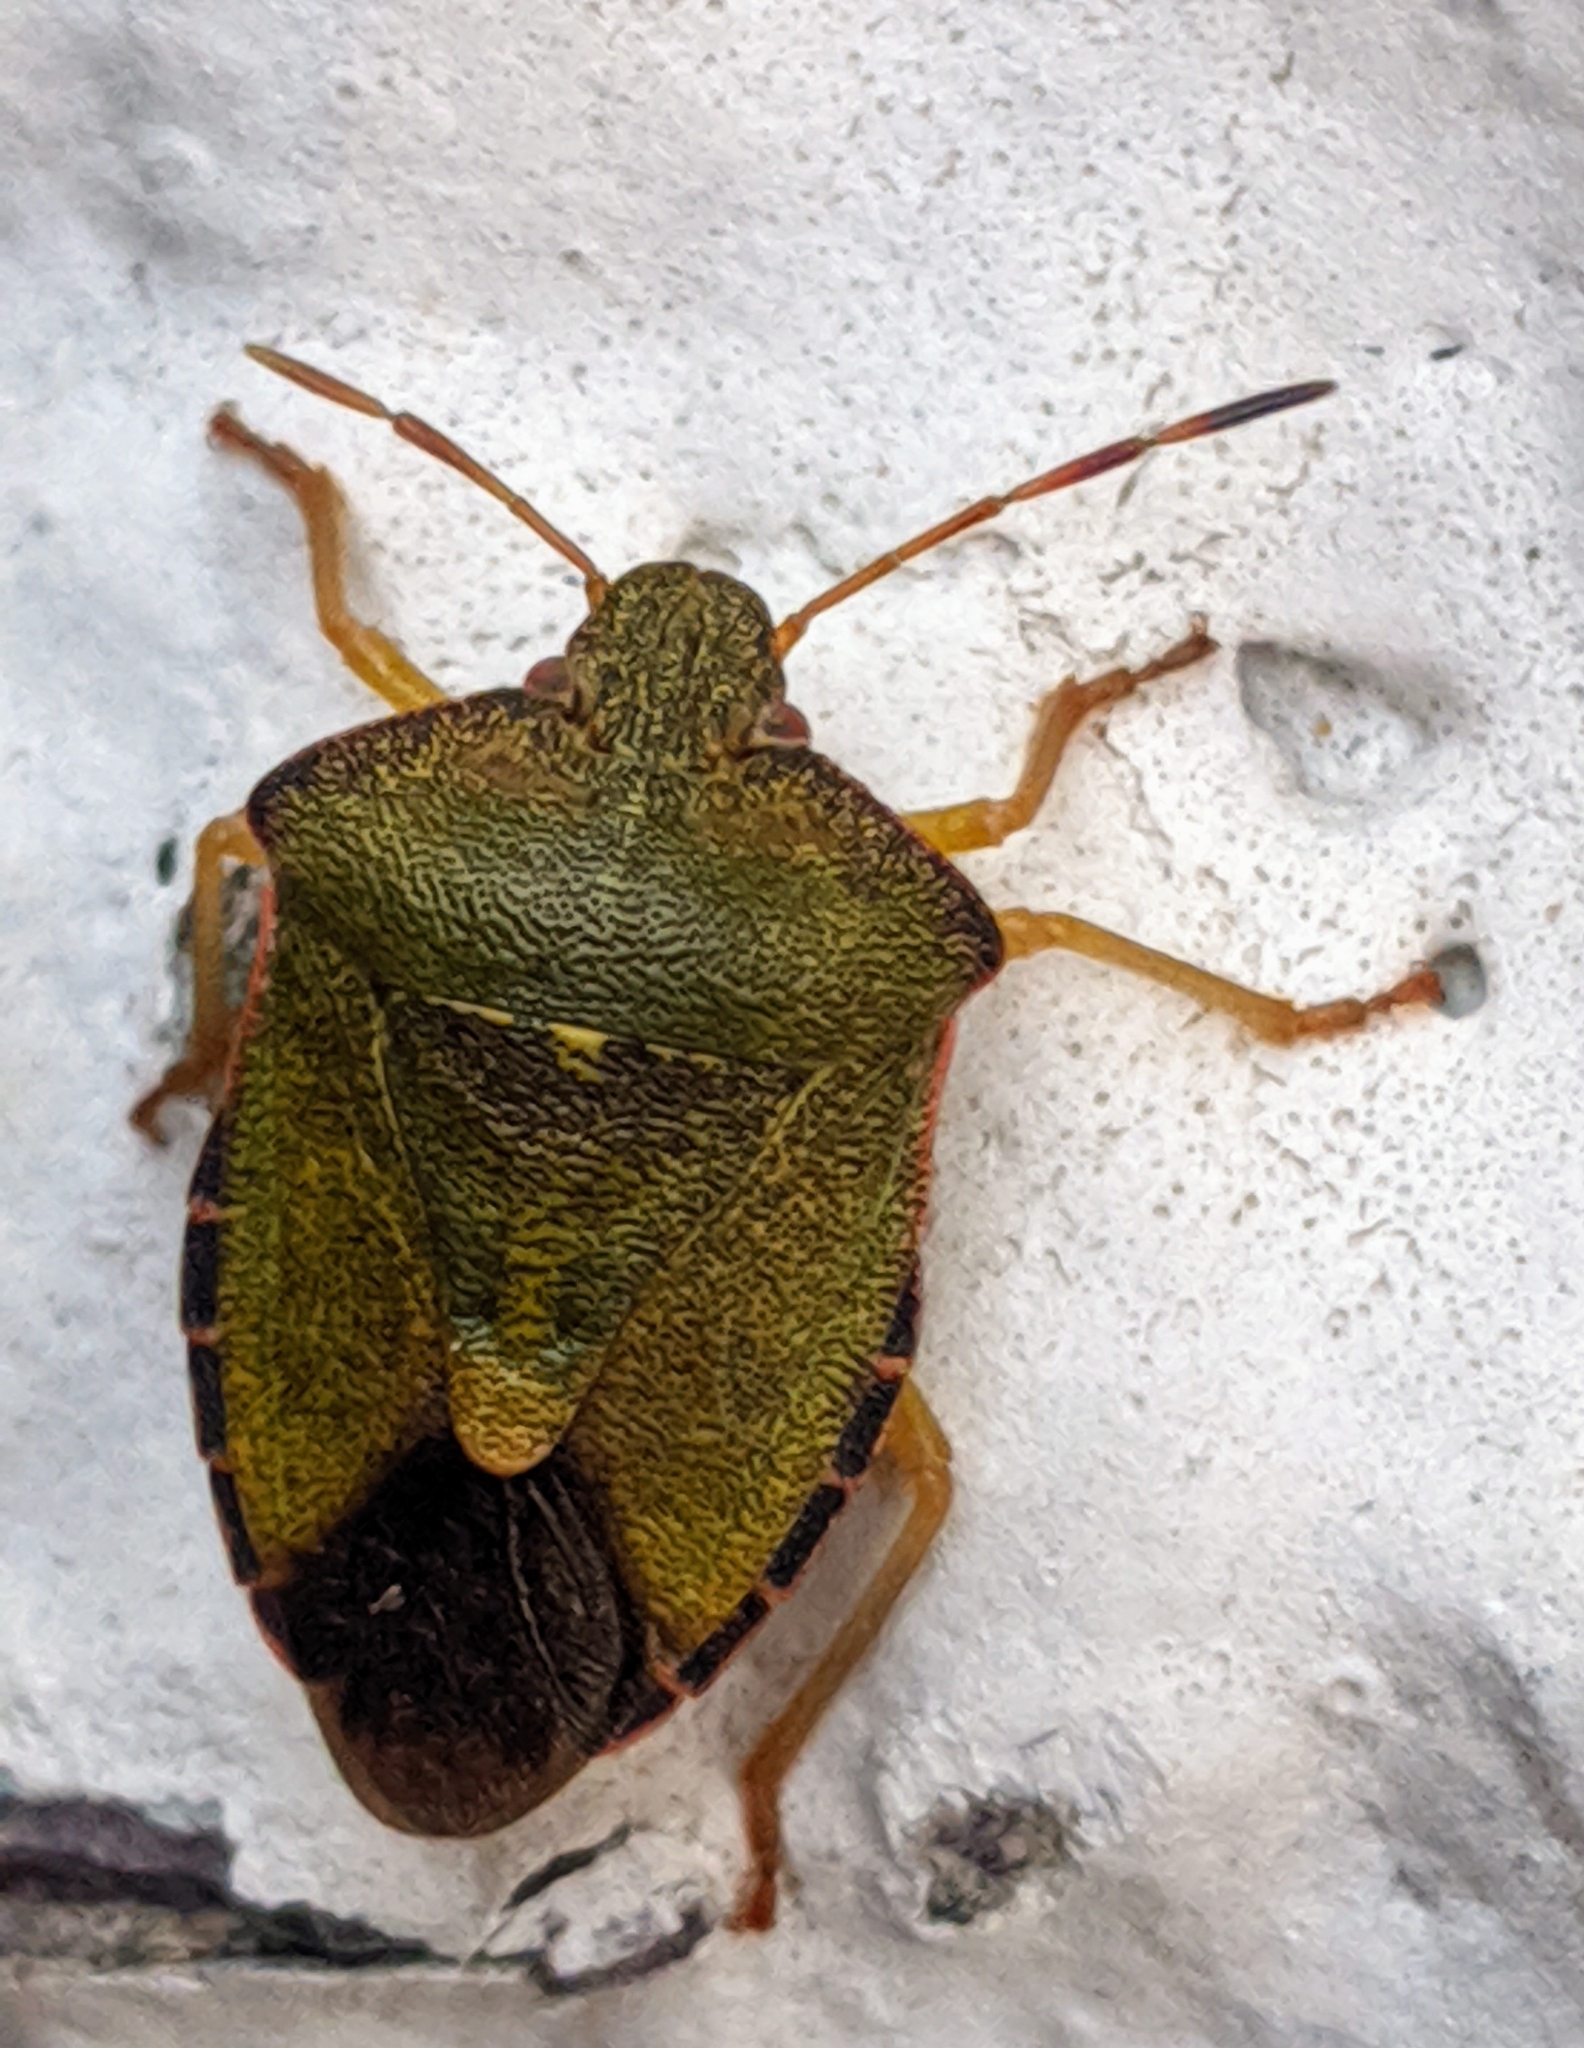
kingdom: Animalia
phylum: Arthropoda
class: Insecta
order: Hemiptera
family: Pentatomidae
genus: Palomena
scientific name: Palomena prasina
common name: Green shieldbug
